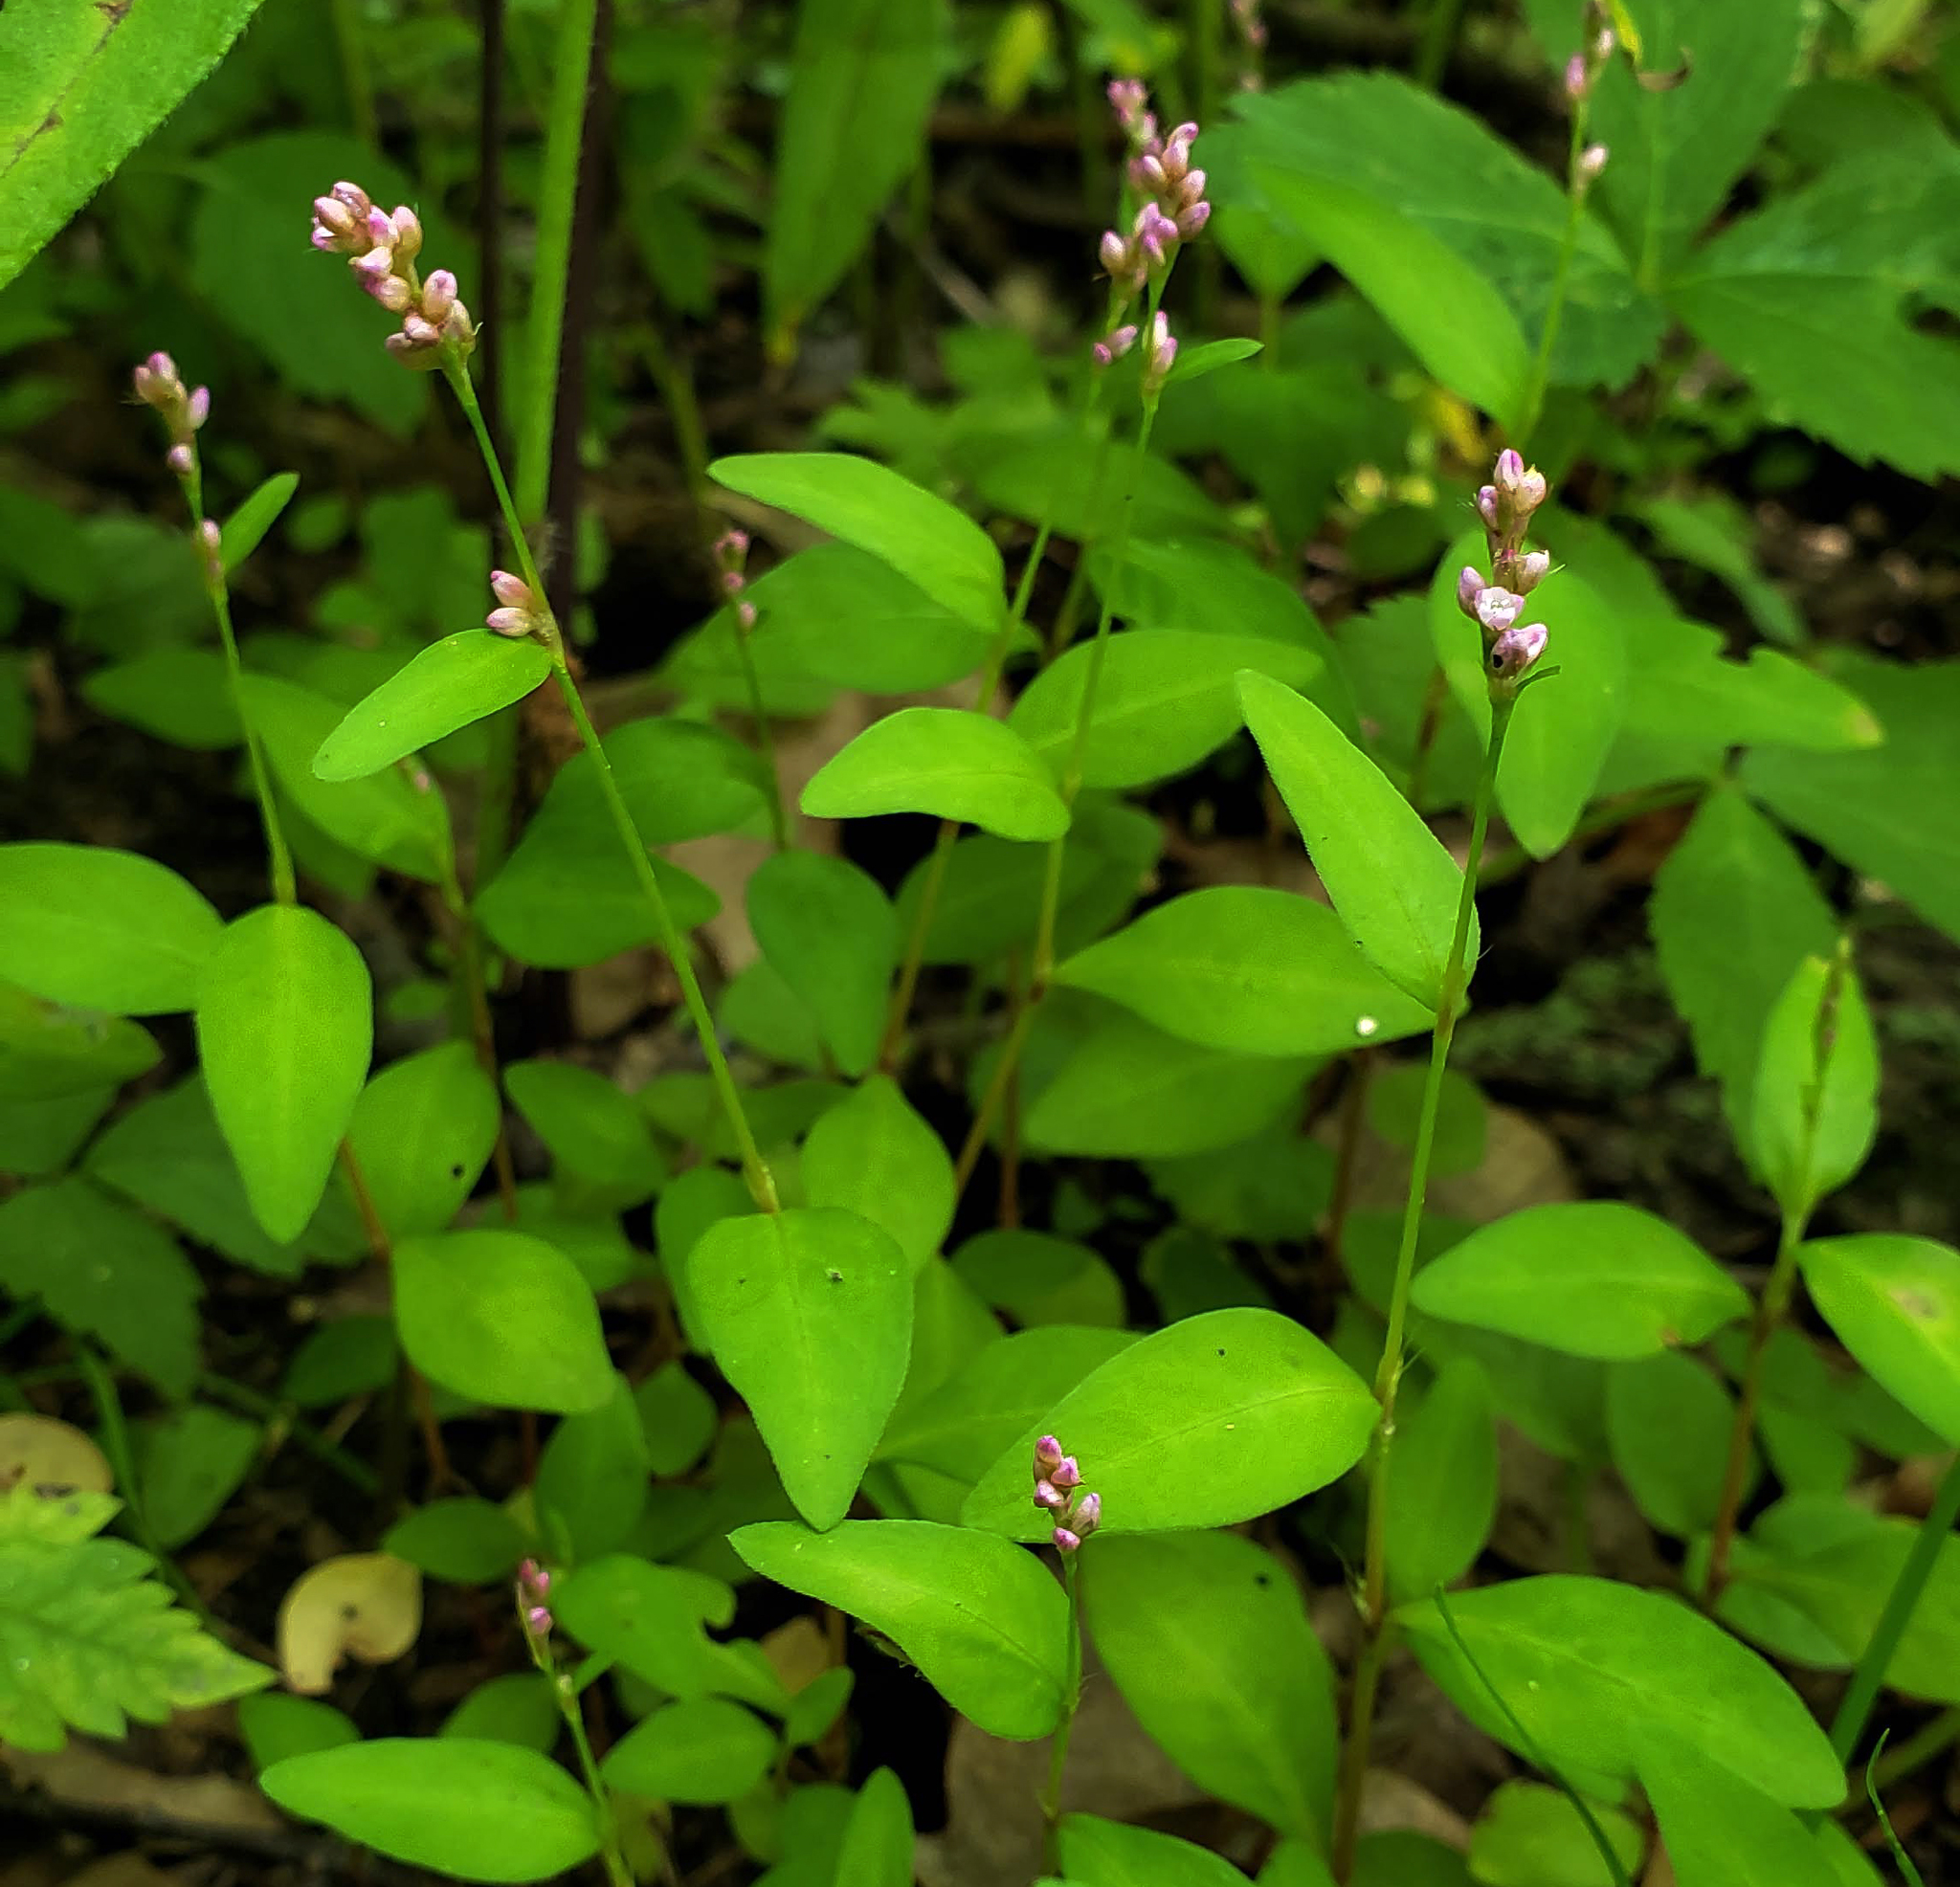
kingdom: Plantae
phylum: Tracheophyta
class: Magnoliopsida
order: Caryophyllales
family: Polygonaceae
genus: Persicaria
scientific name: Persicaria longiseta
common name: Bristly lady's-thumb
